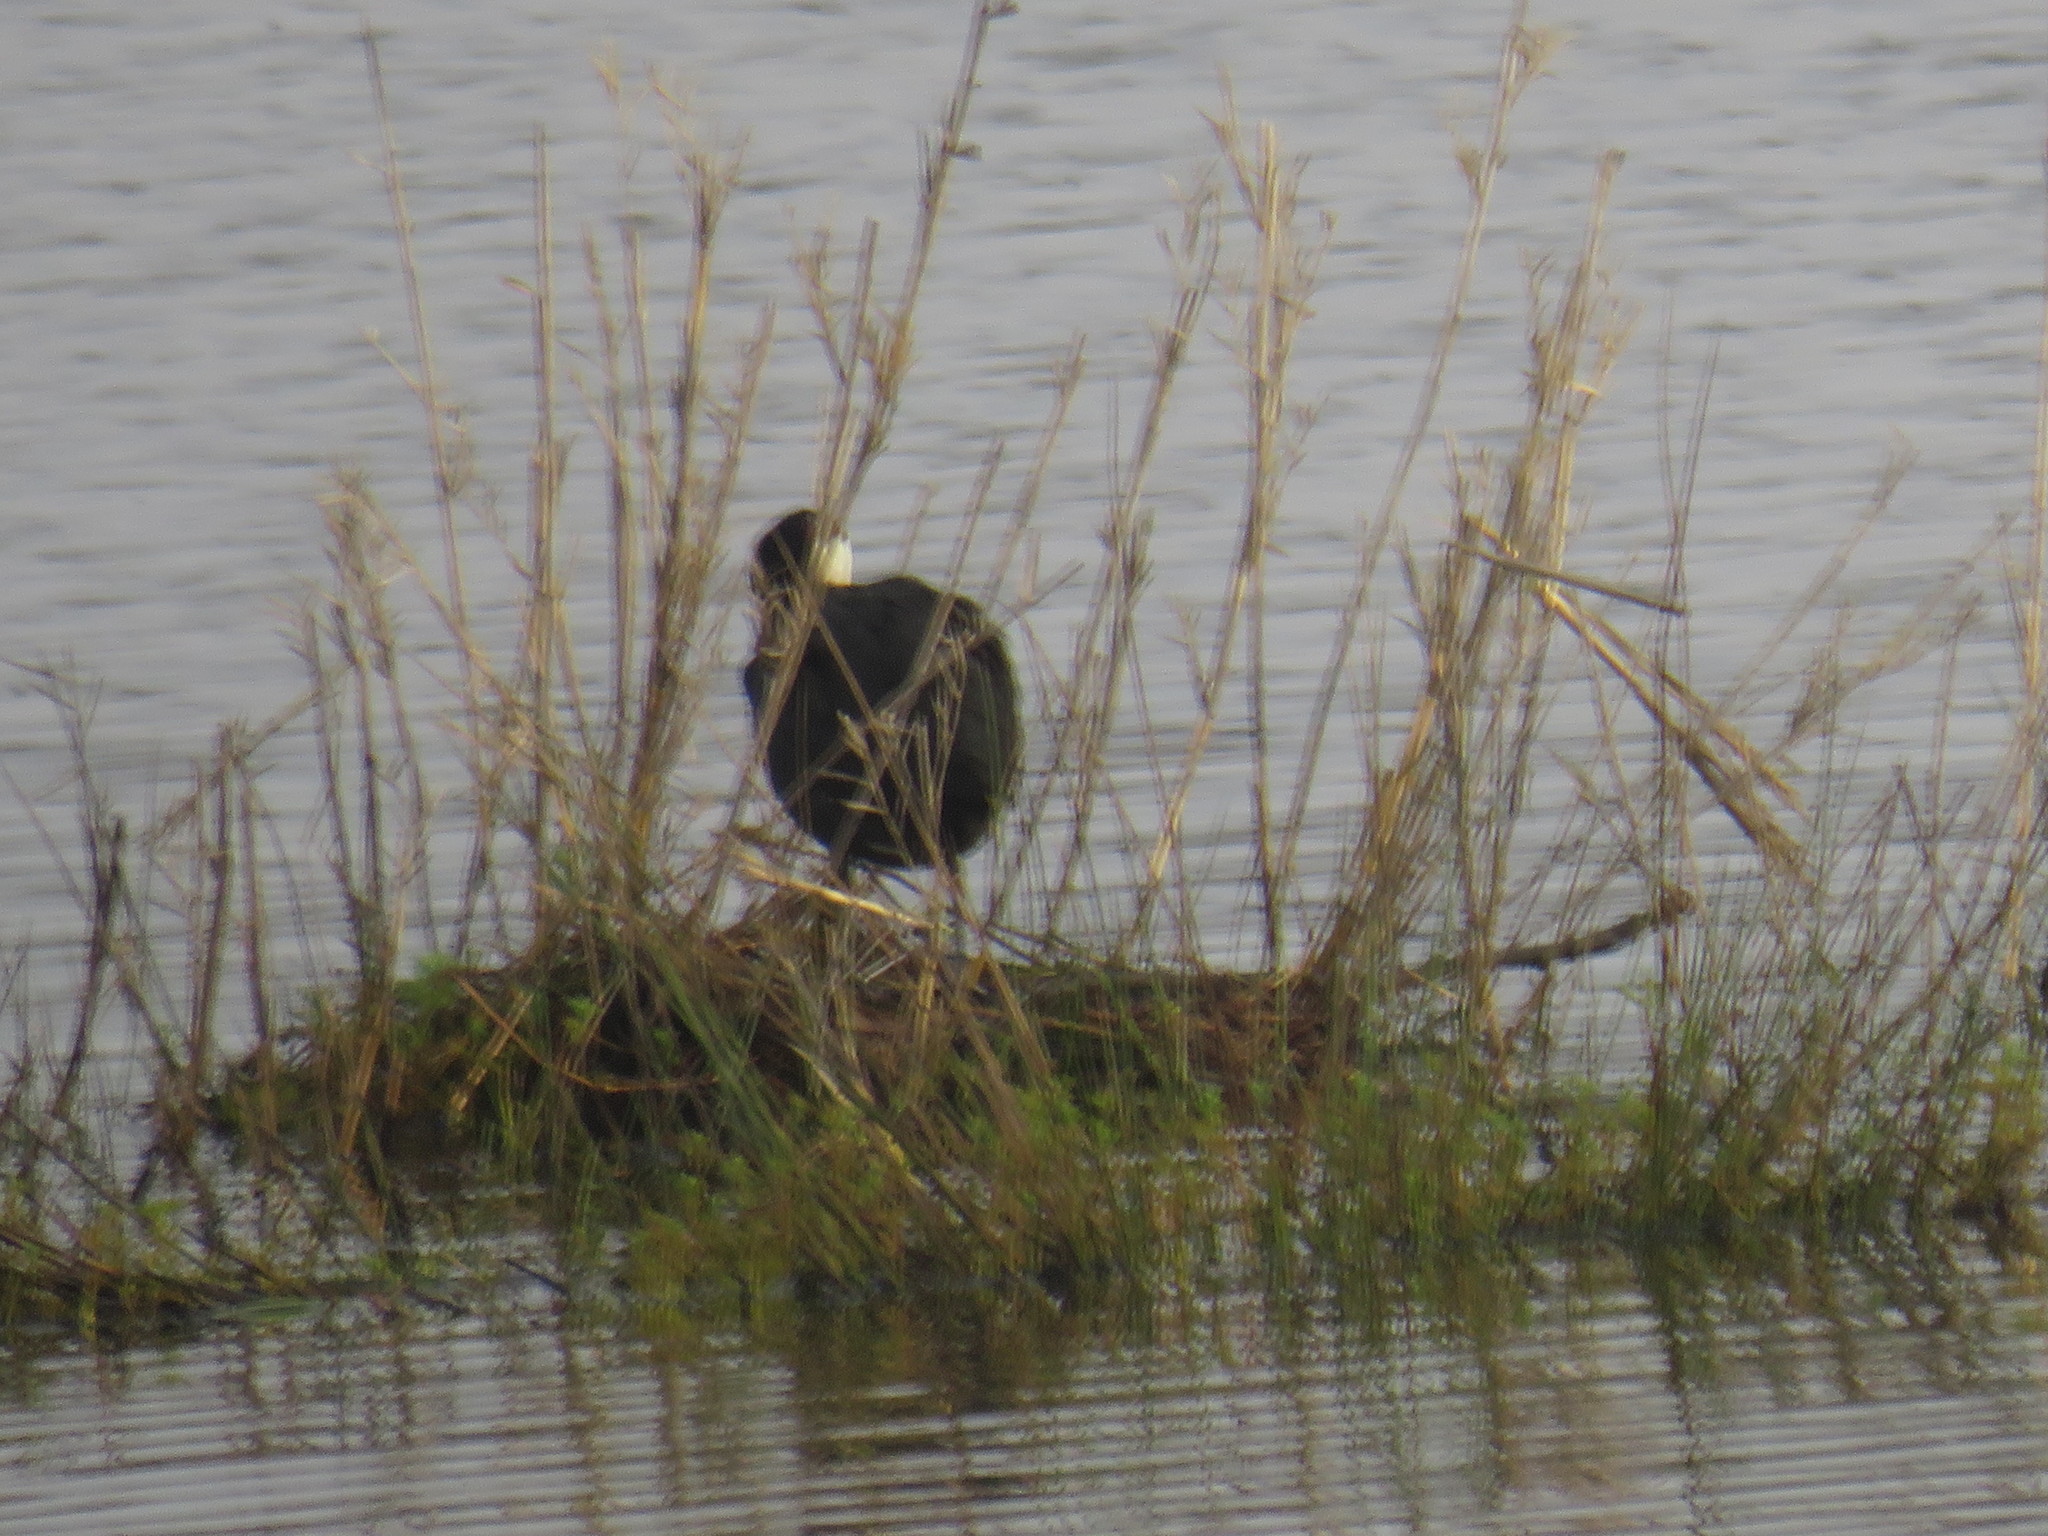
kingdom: Animalia
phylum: Chordata
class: Aves
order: Gruiformes
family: Rallidae
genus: Fulica
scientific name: Fulica cristata
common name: Red-knobbed coot
